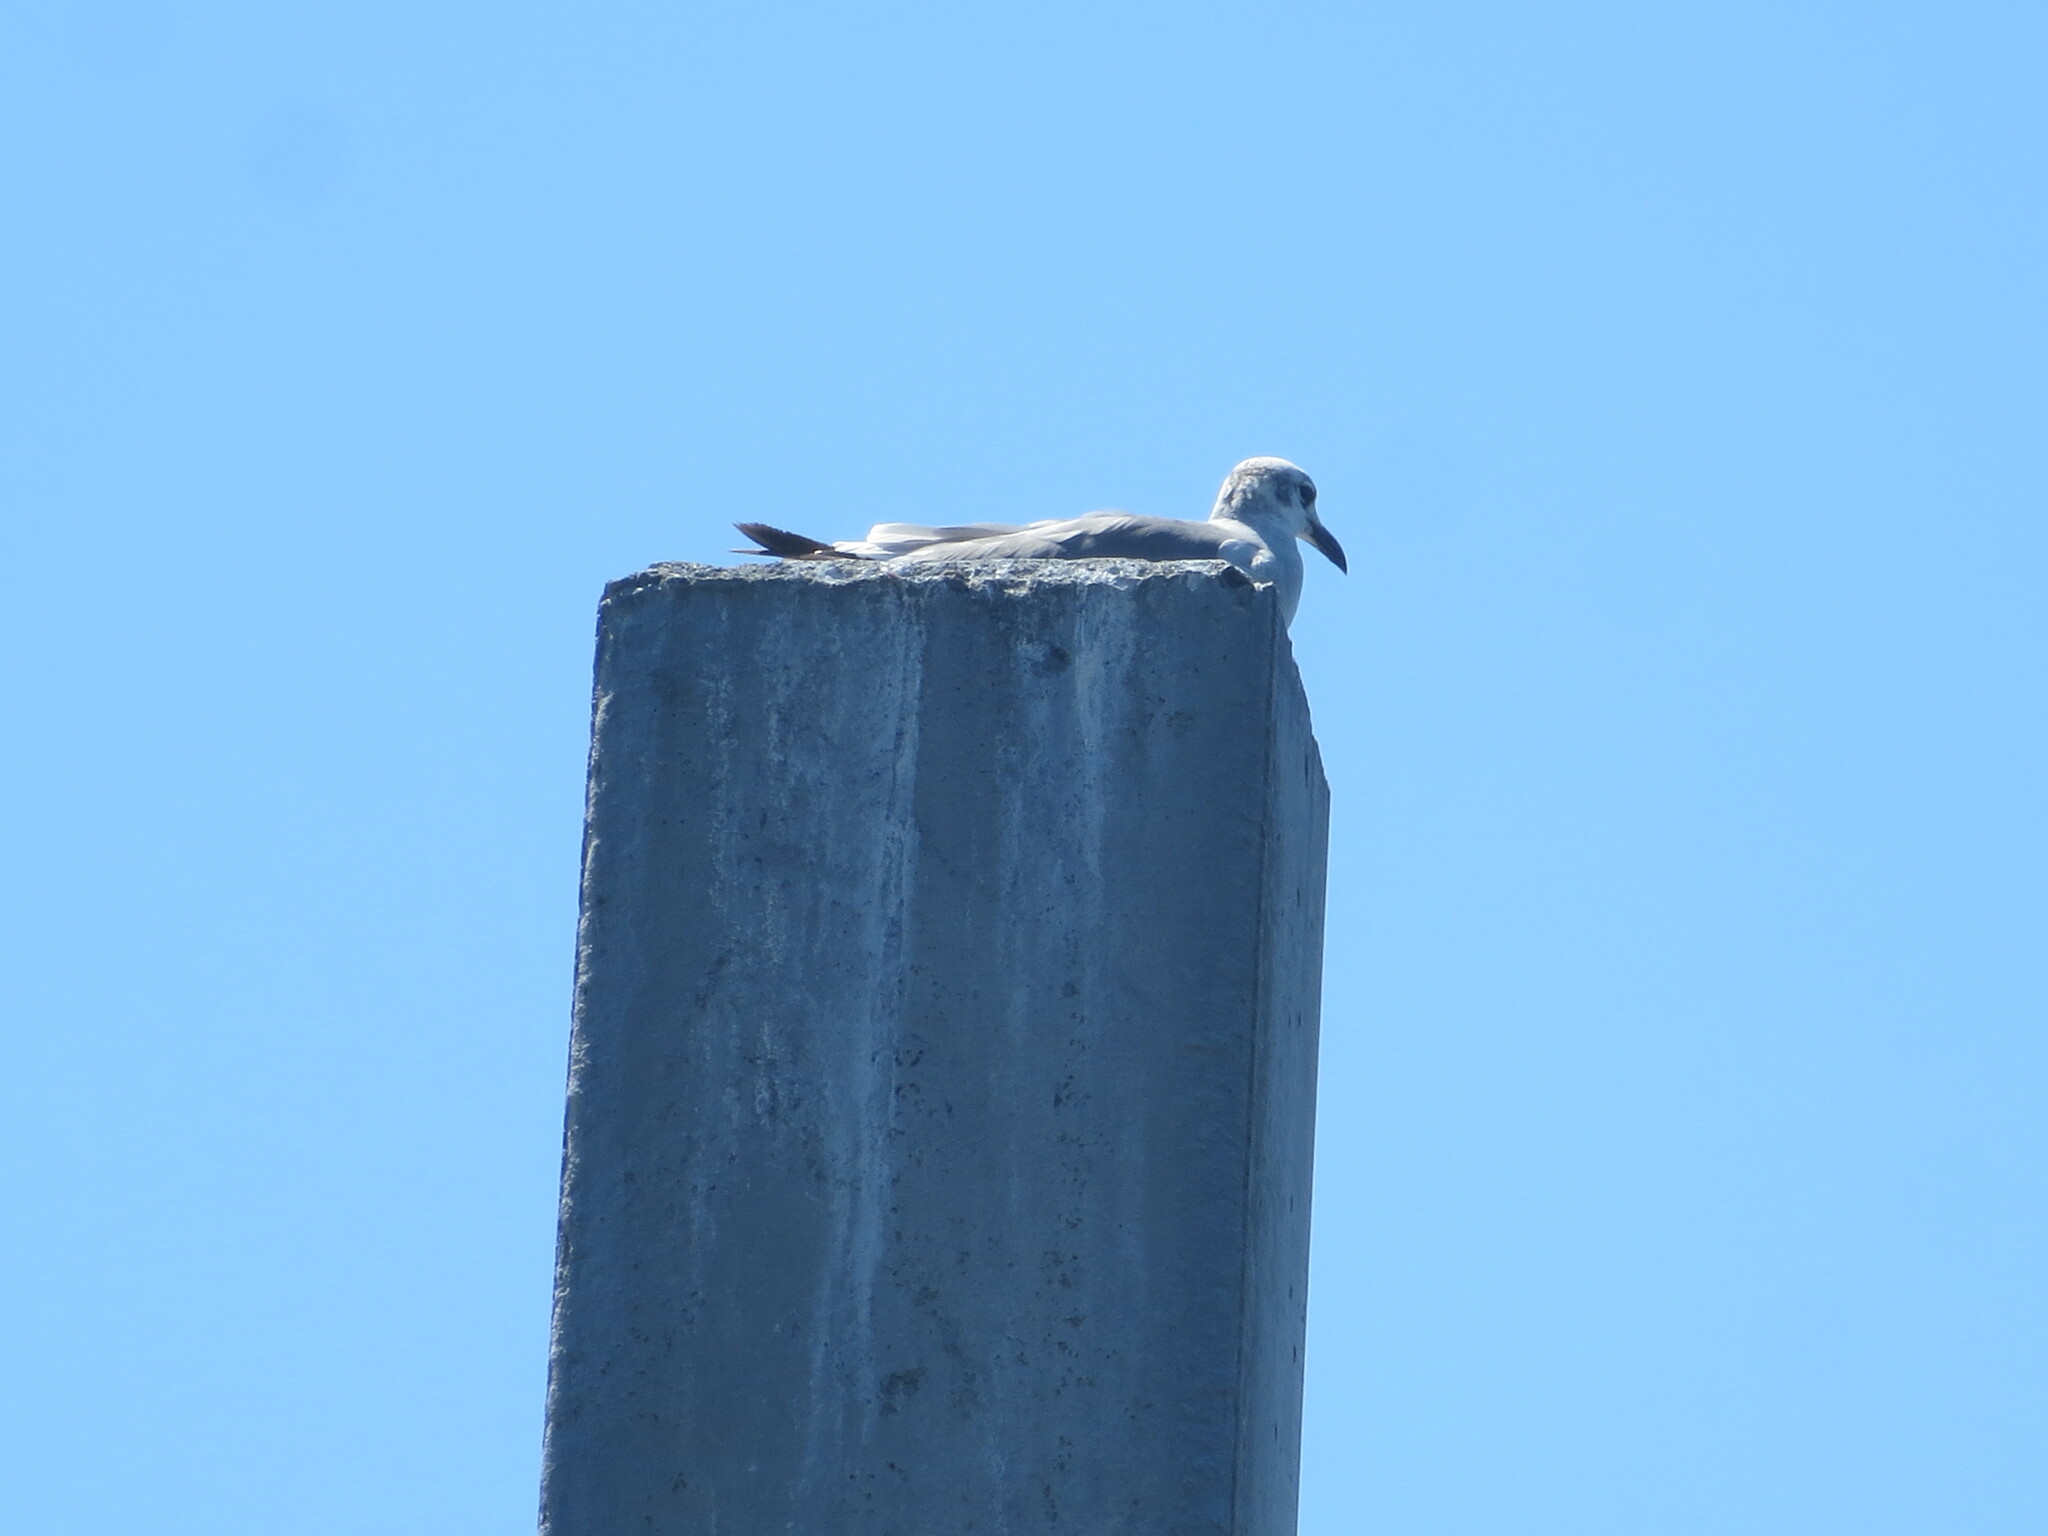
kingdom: Animalia
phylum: Chordata
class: Aves
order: Charadriiformes
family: Laridae
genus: Leucophaeus
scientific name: Leucophaeus atricilla
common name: Laughing gull
